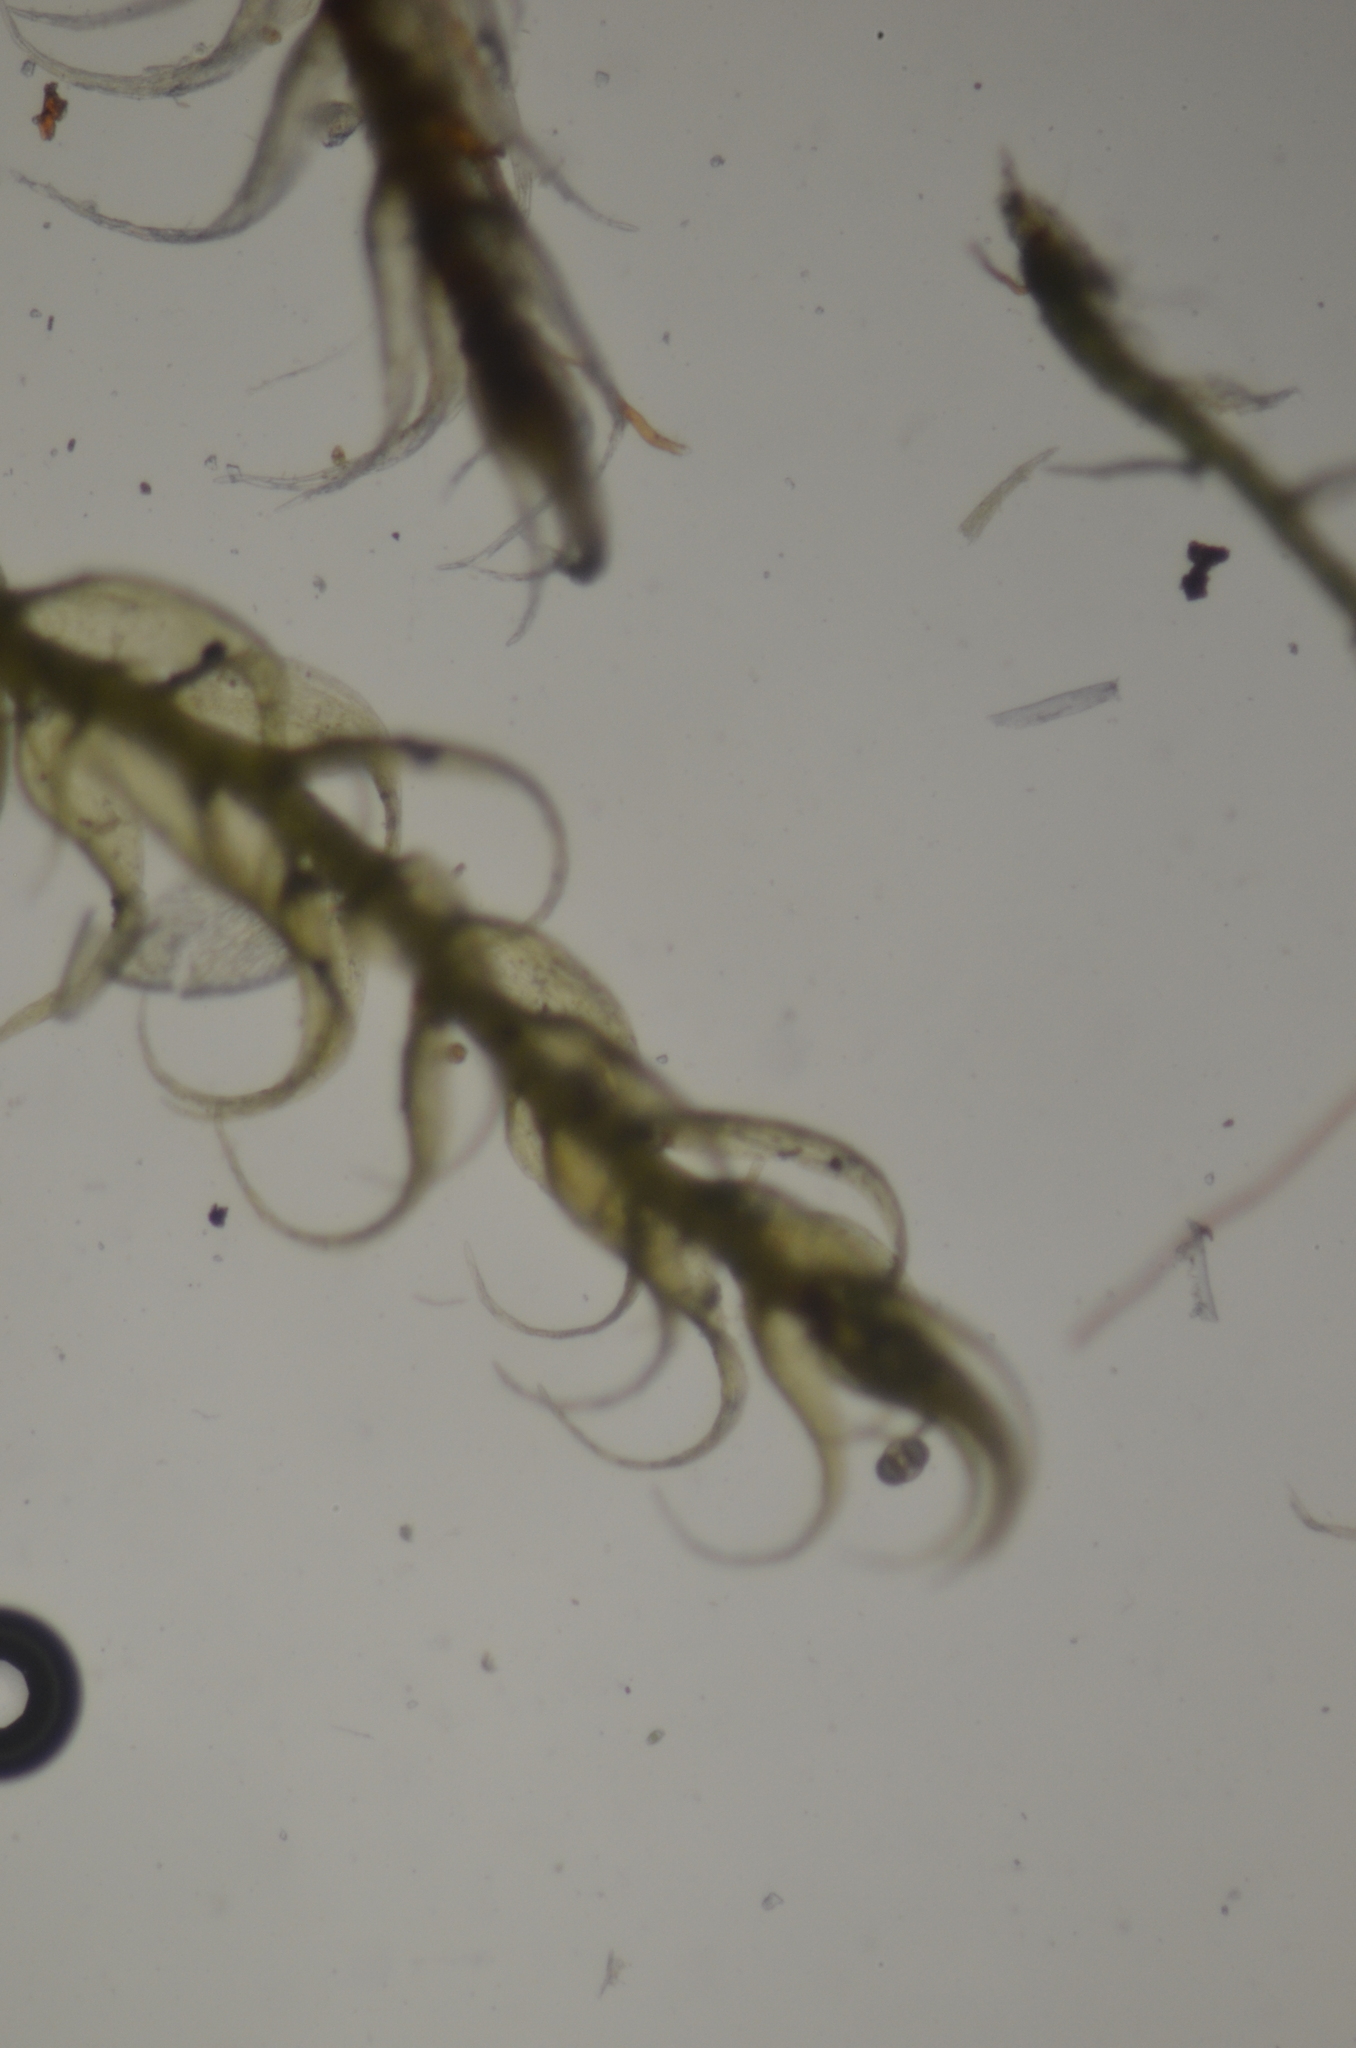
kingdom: Plantae
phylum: Bryophyta
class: Bryopsida
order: Hypnales
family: Amblystegiaceae
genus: Drepanocladus
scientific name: Drepanocladus aduncus
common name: Knieff's hook moss
